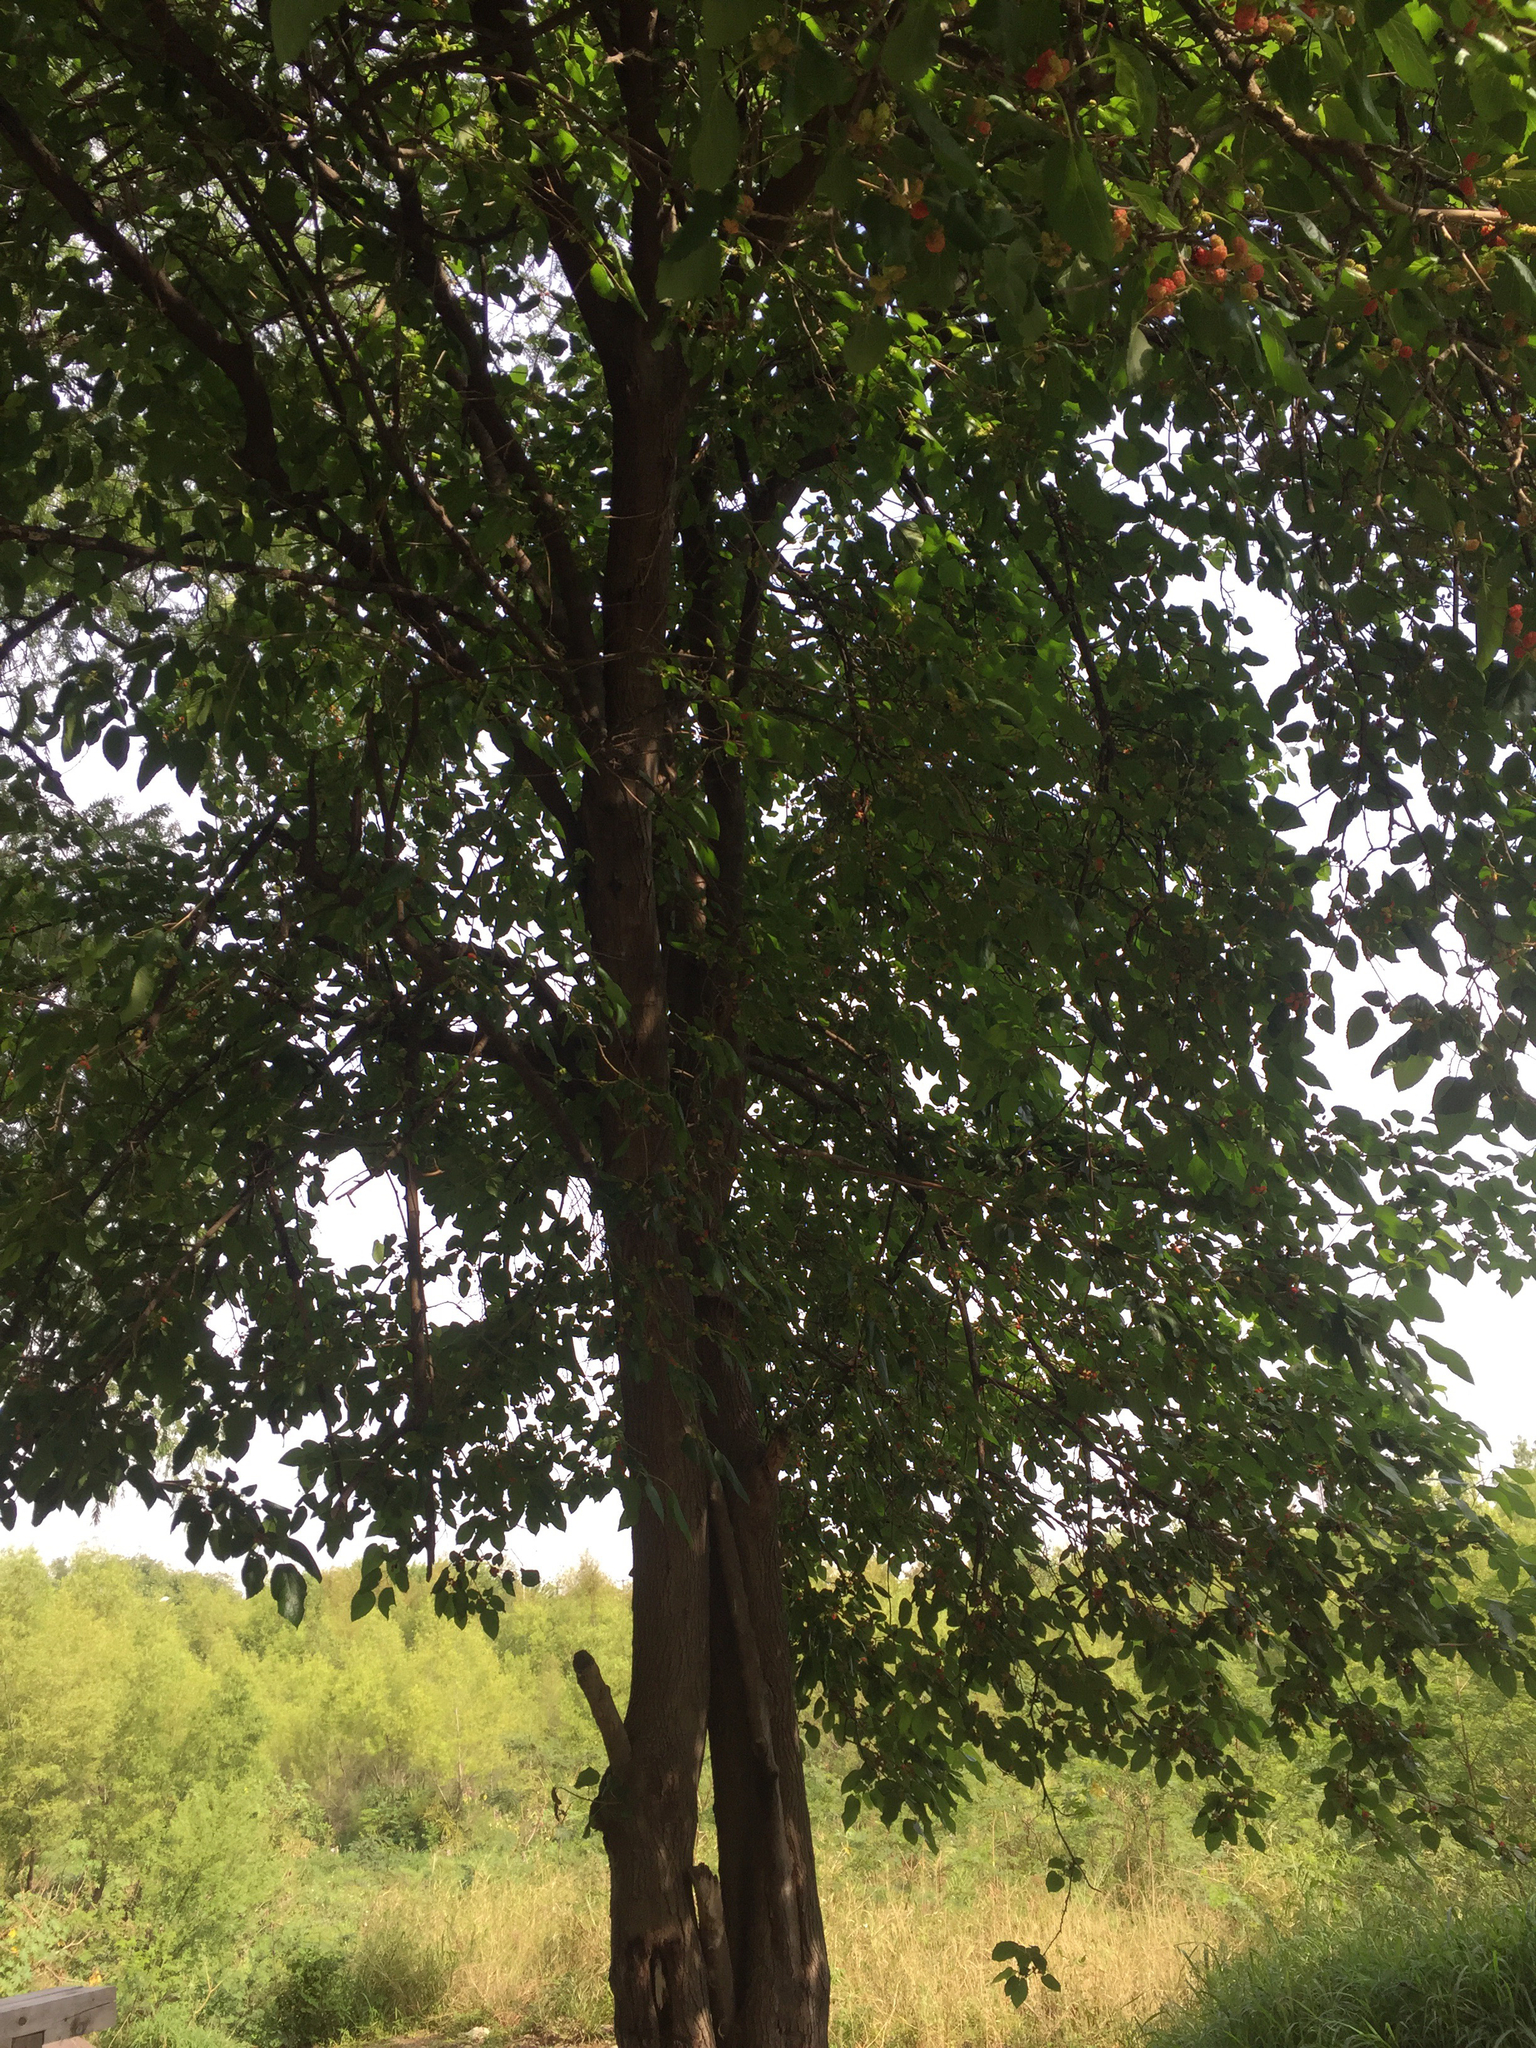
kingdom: Plantae
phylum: Tracheophyta
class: Magnoliopsida
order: Rosales
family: Moraceae
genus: Morus
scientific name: Morus alba
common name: White mulberry
